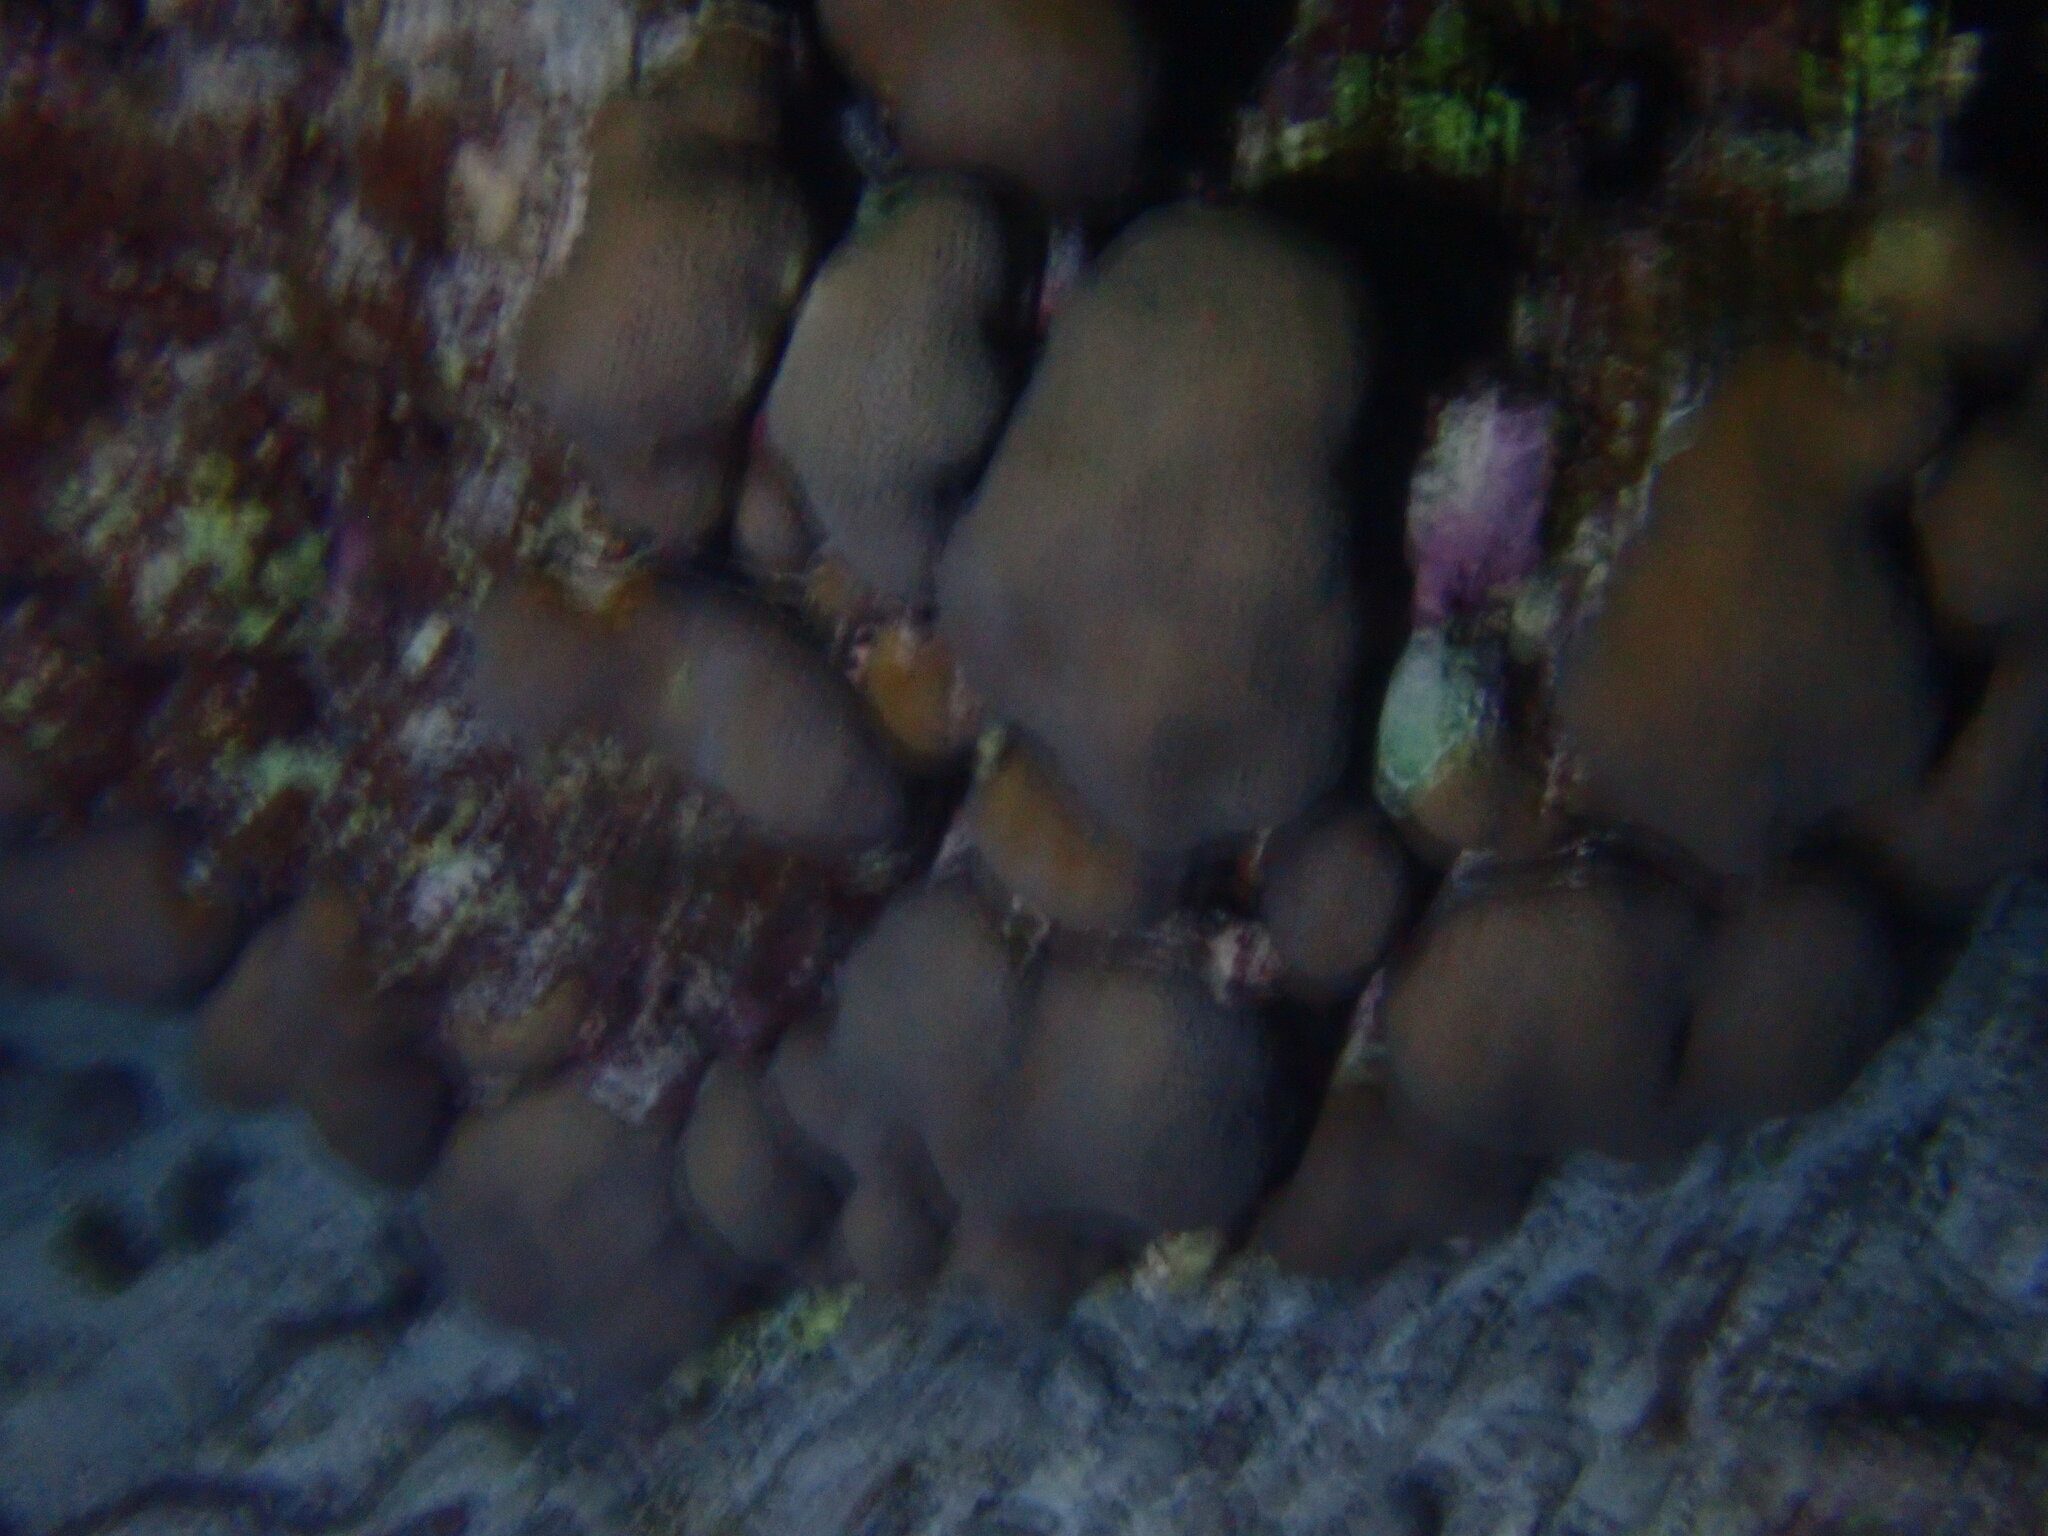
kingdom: Animalia
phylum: Cnidaria
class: Anthozoa
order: Scleractinia
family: Merulinidae
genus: Orbicella
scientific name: Orbicella annularis
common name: Boulder star coral
